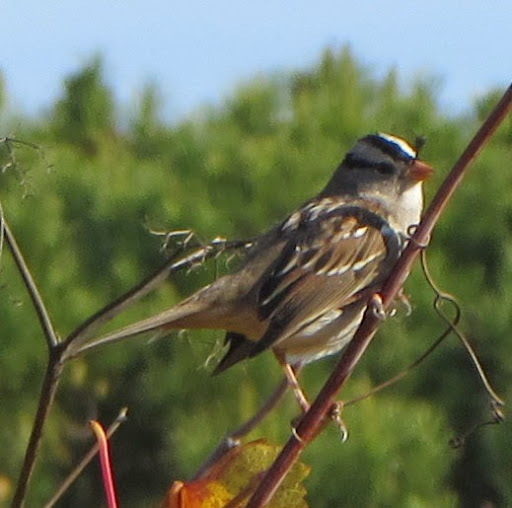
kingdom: Animalia
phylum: Chordata
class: Aves
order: Passeriformes
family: Passerellidae
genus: Zonotrichia
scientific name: Zonotrichia leucophrys
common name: White-crowned sparrow
